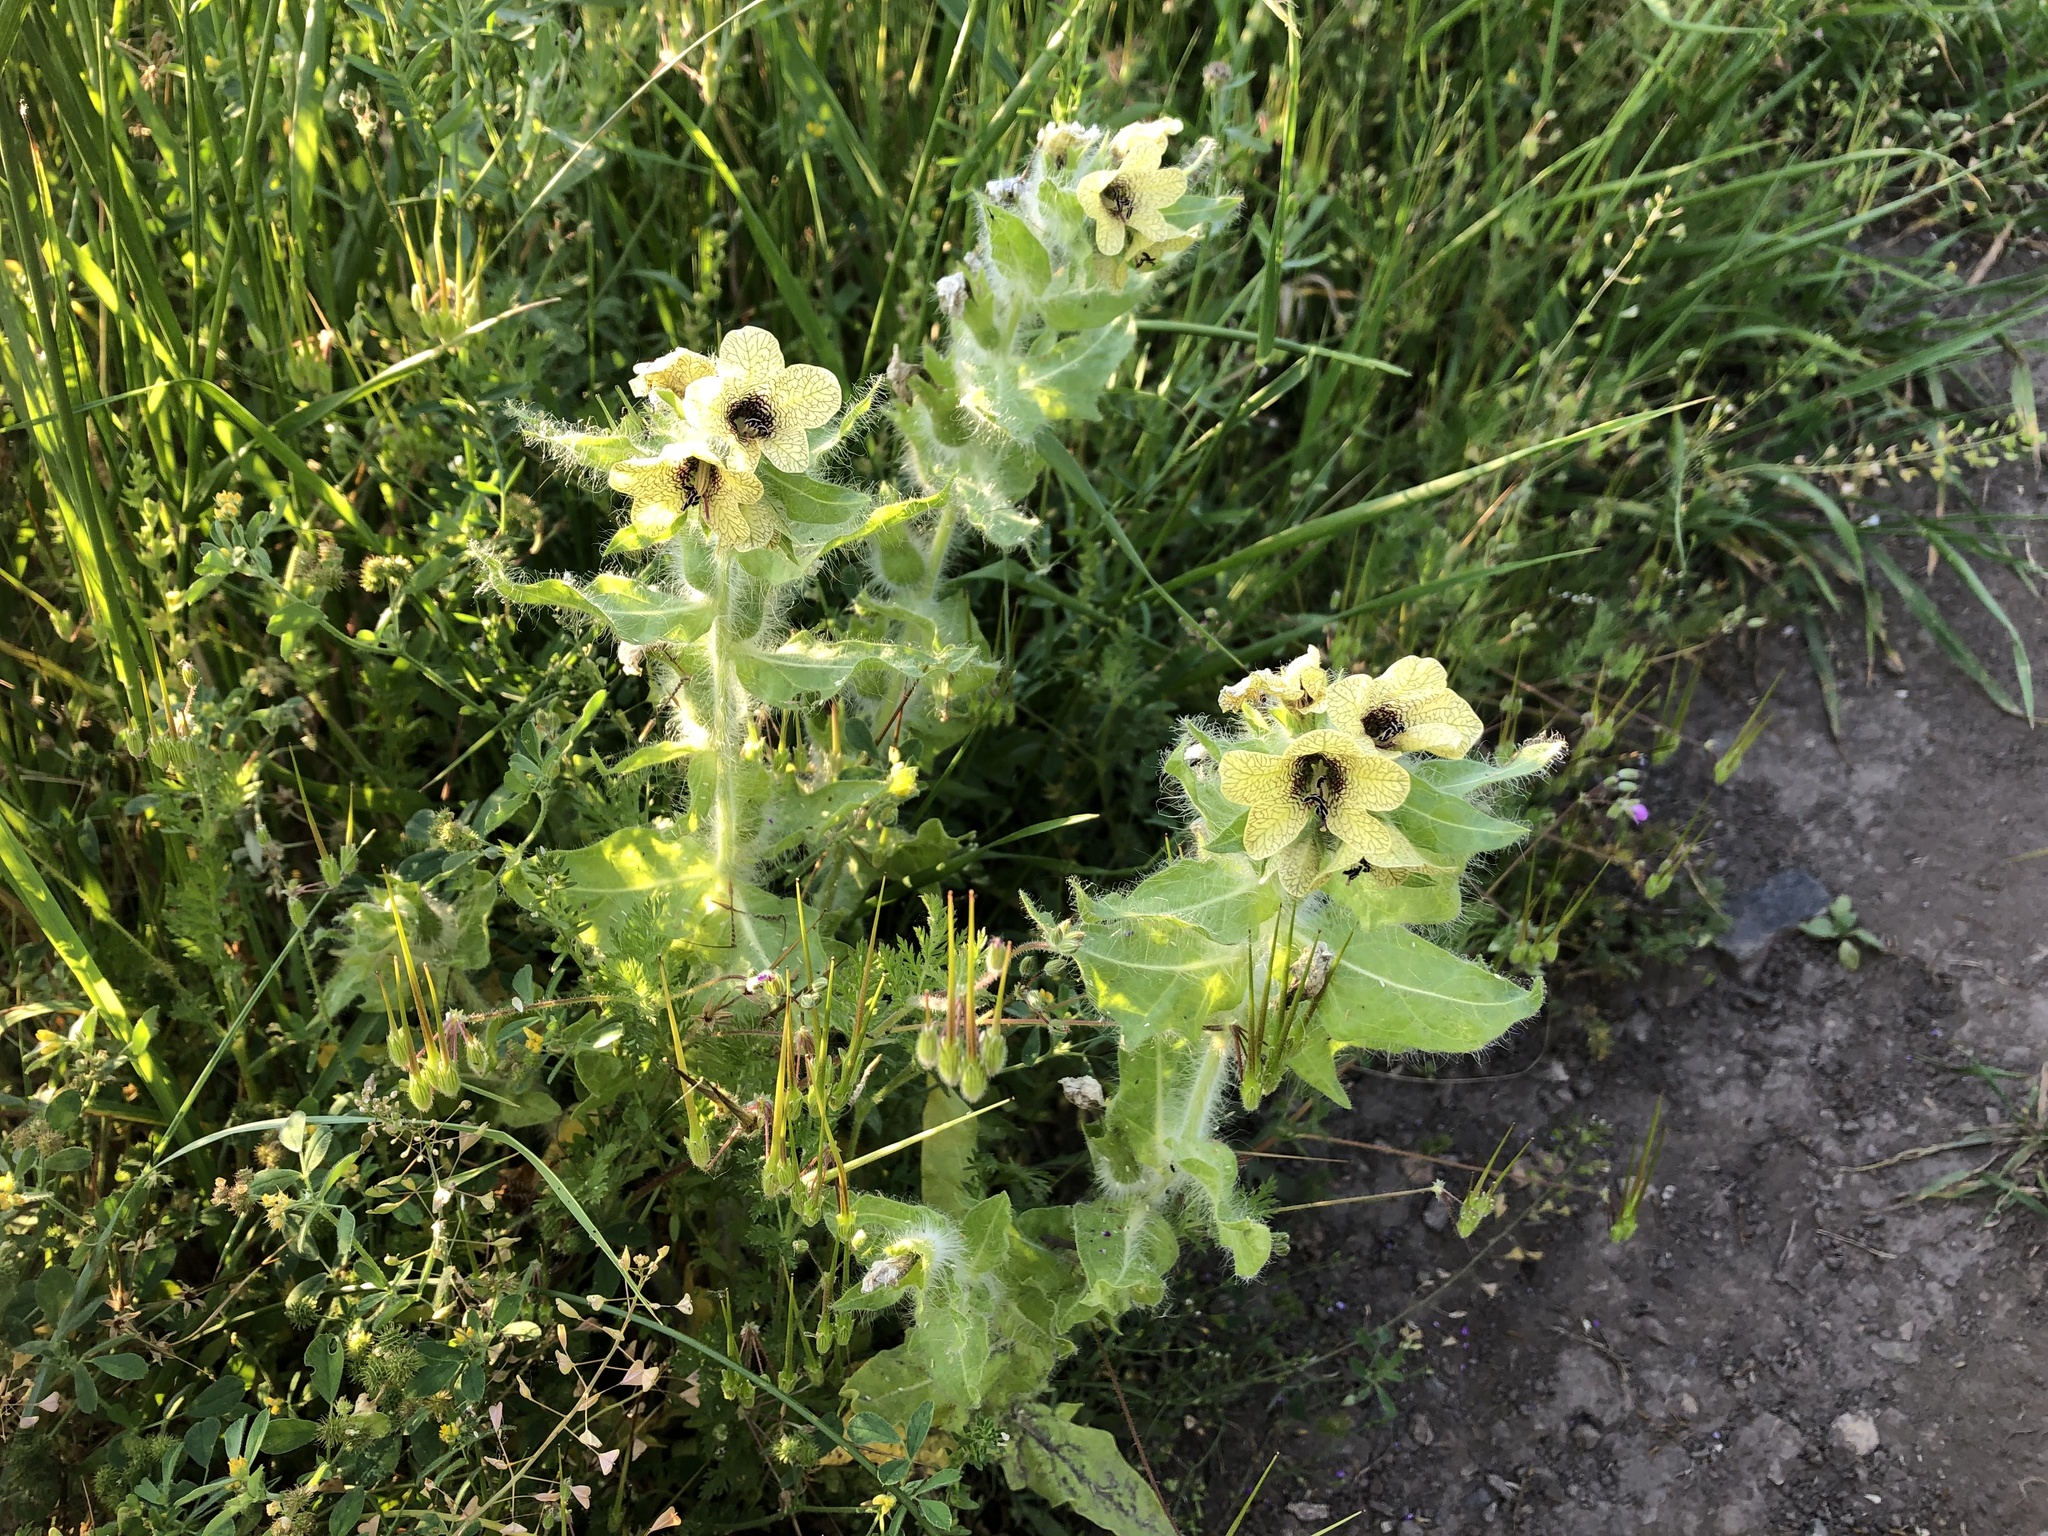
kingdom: Plantae
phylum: Tracheophyta
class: Magnoliopsida
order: Solanales
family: Solanaceae
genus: Hyoscyamus
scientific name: Hyoscyamus niger
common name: Henbane
